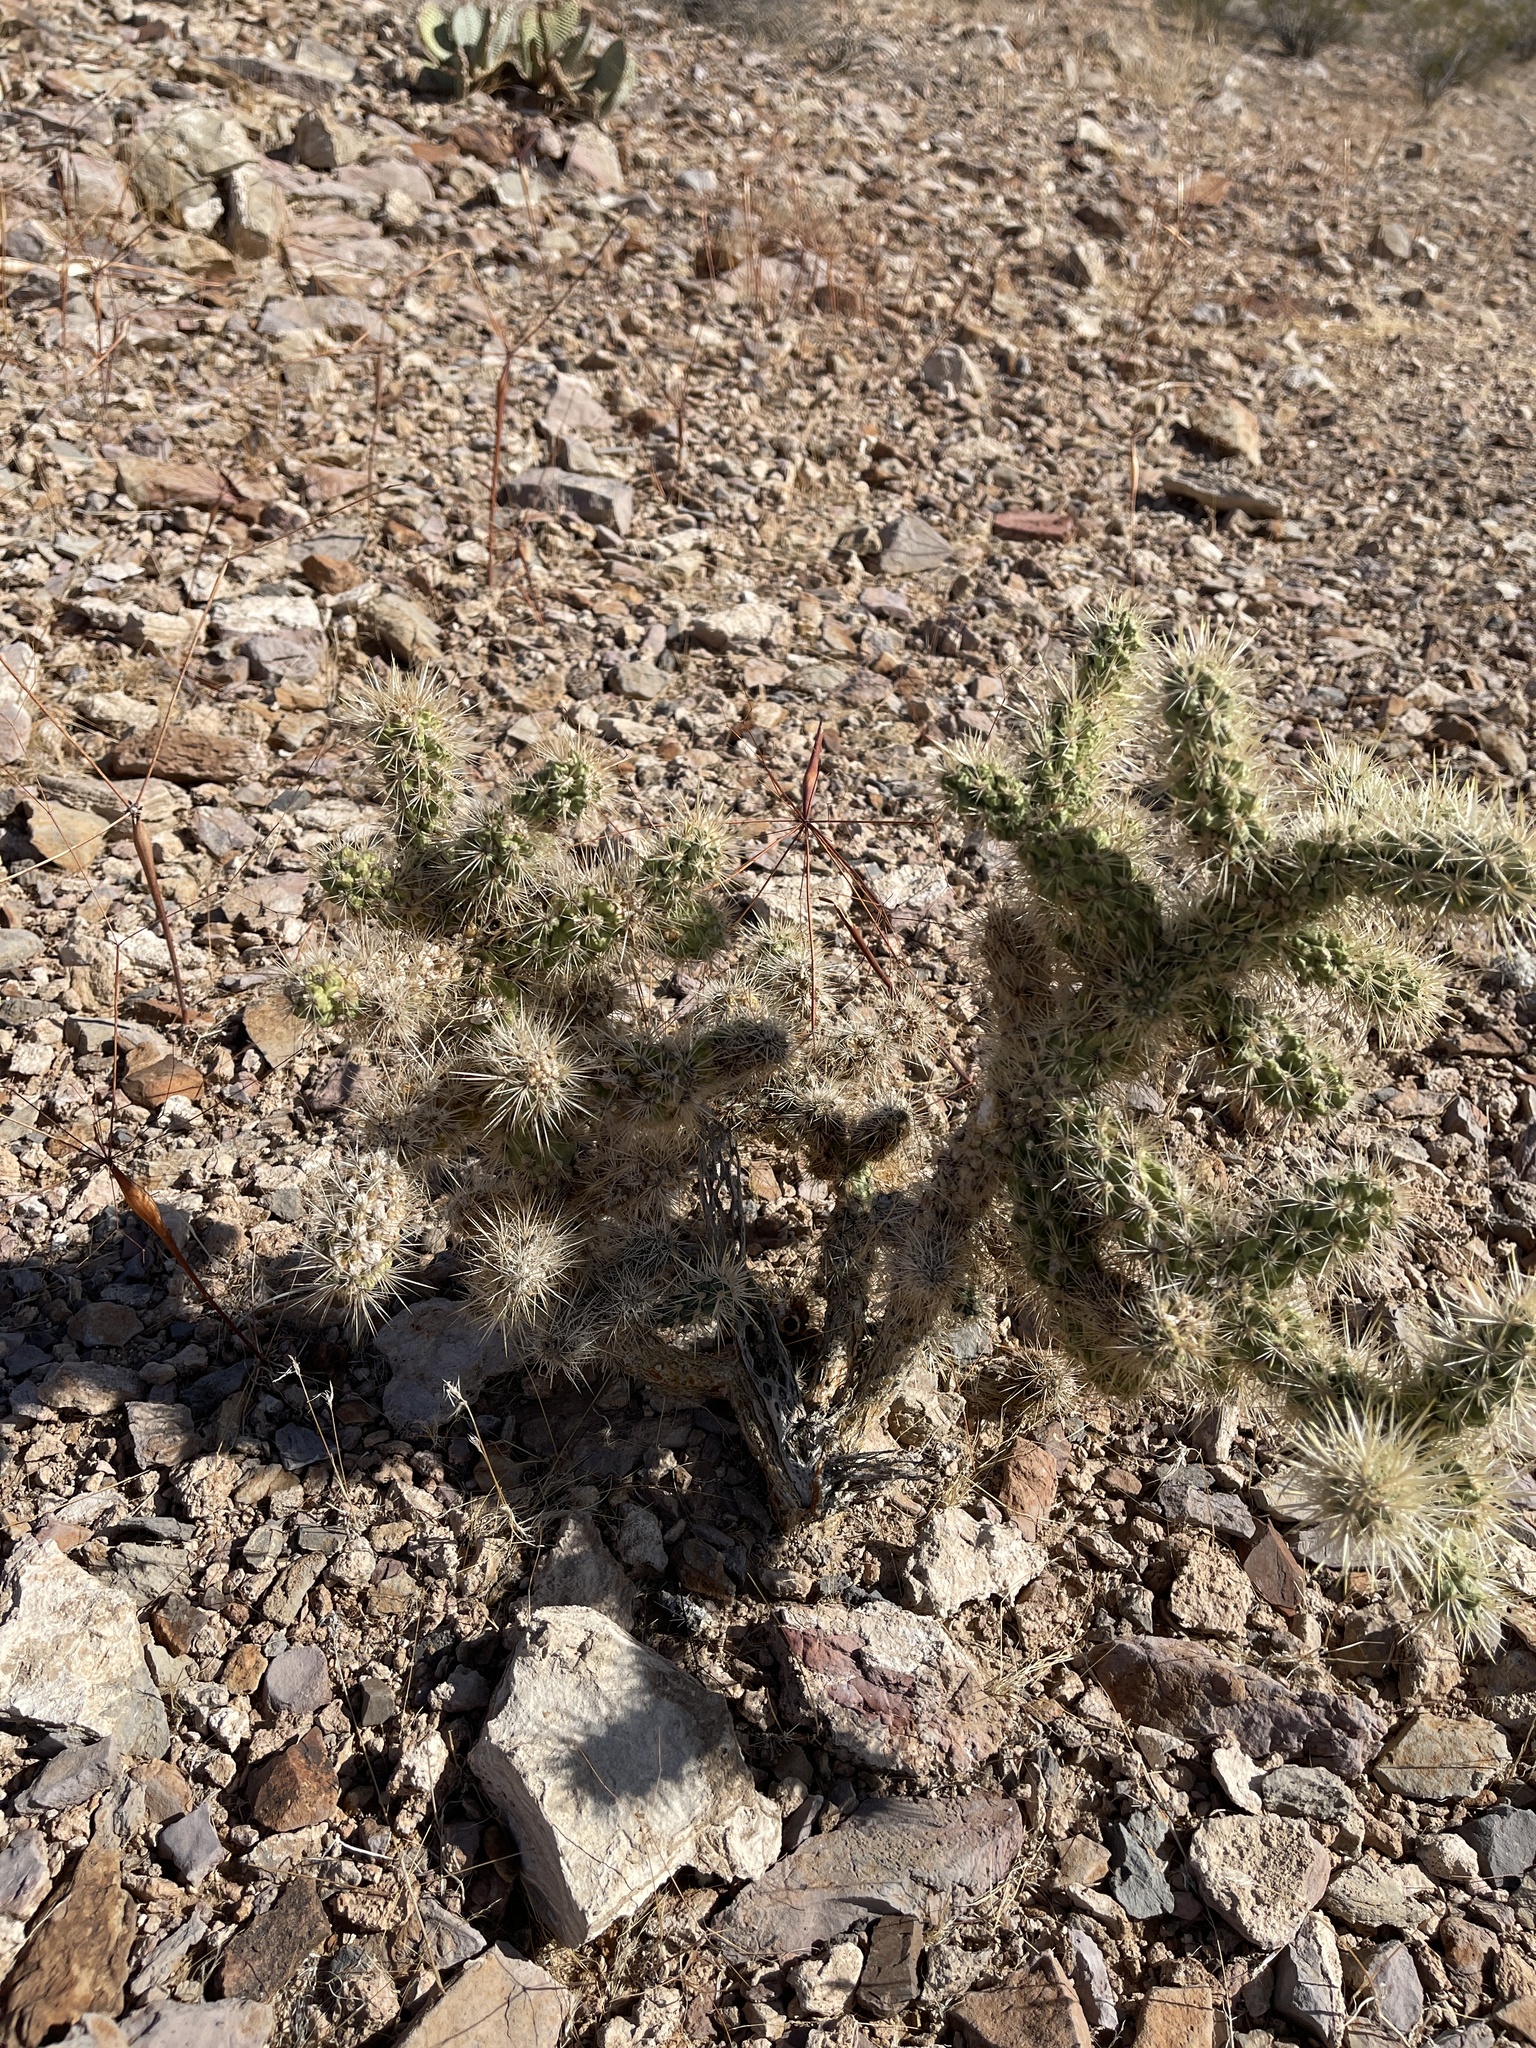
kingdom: Plantae
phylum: Tracheophyta
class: Magnoliopsida
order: Caryophyllales
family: Cactaceae
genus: Cylindropuntia
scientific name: Cylindropuntia echinocarpa
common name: Ground cholla
